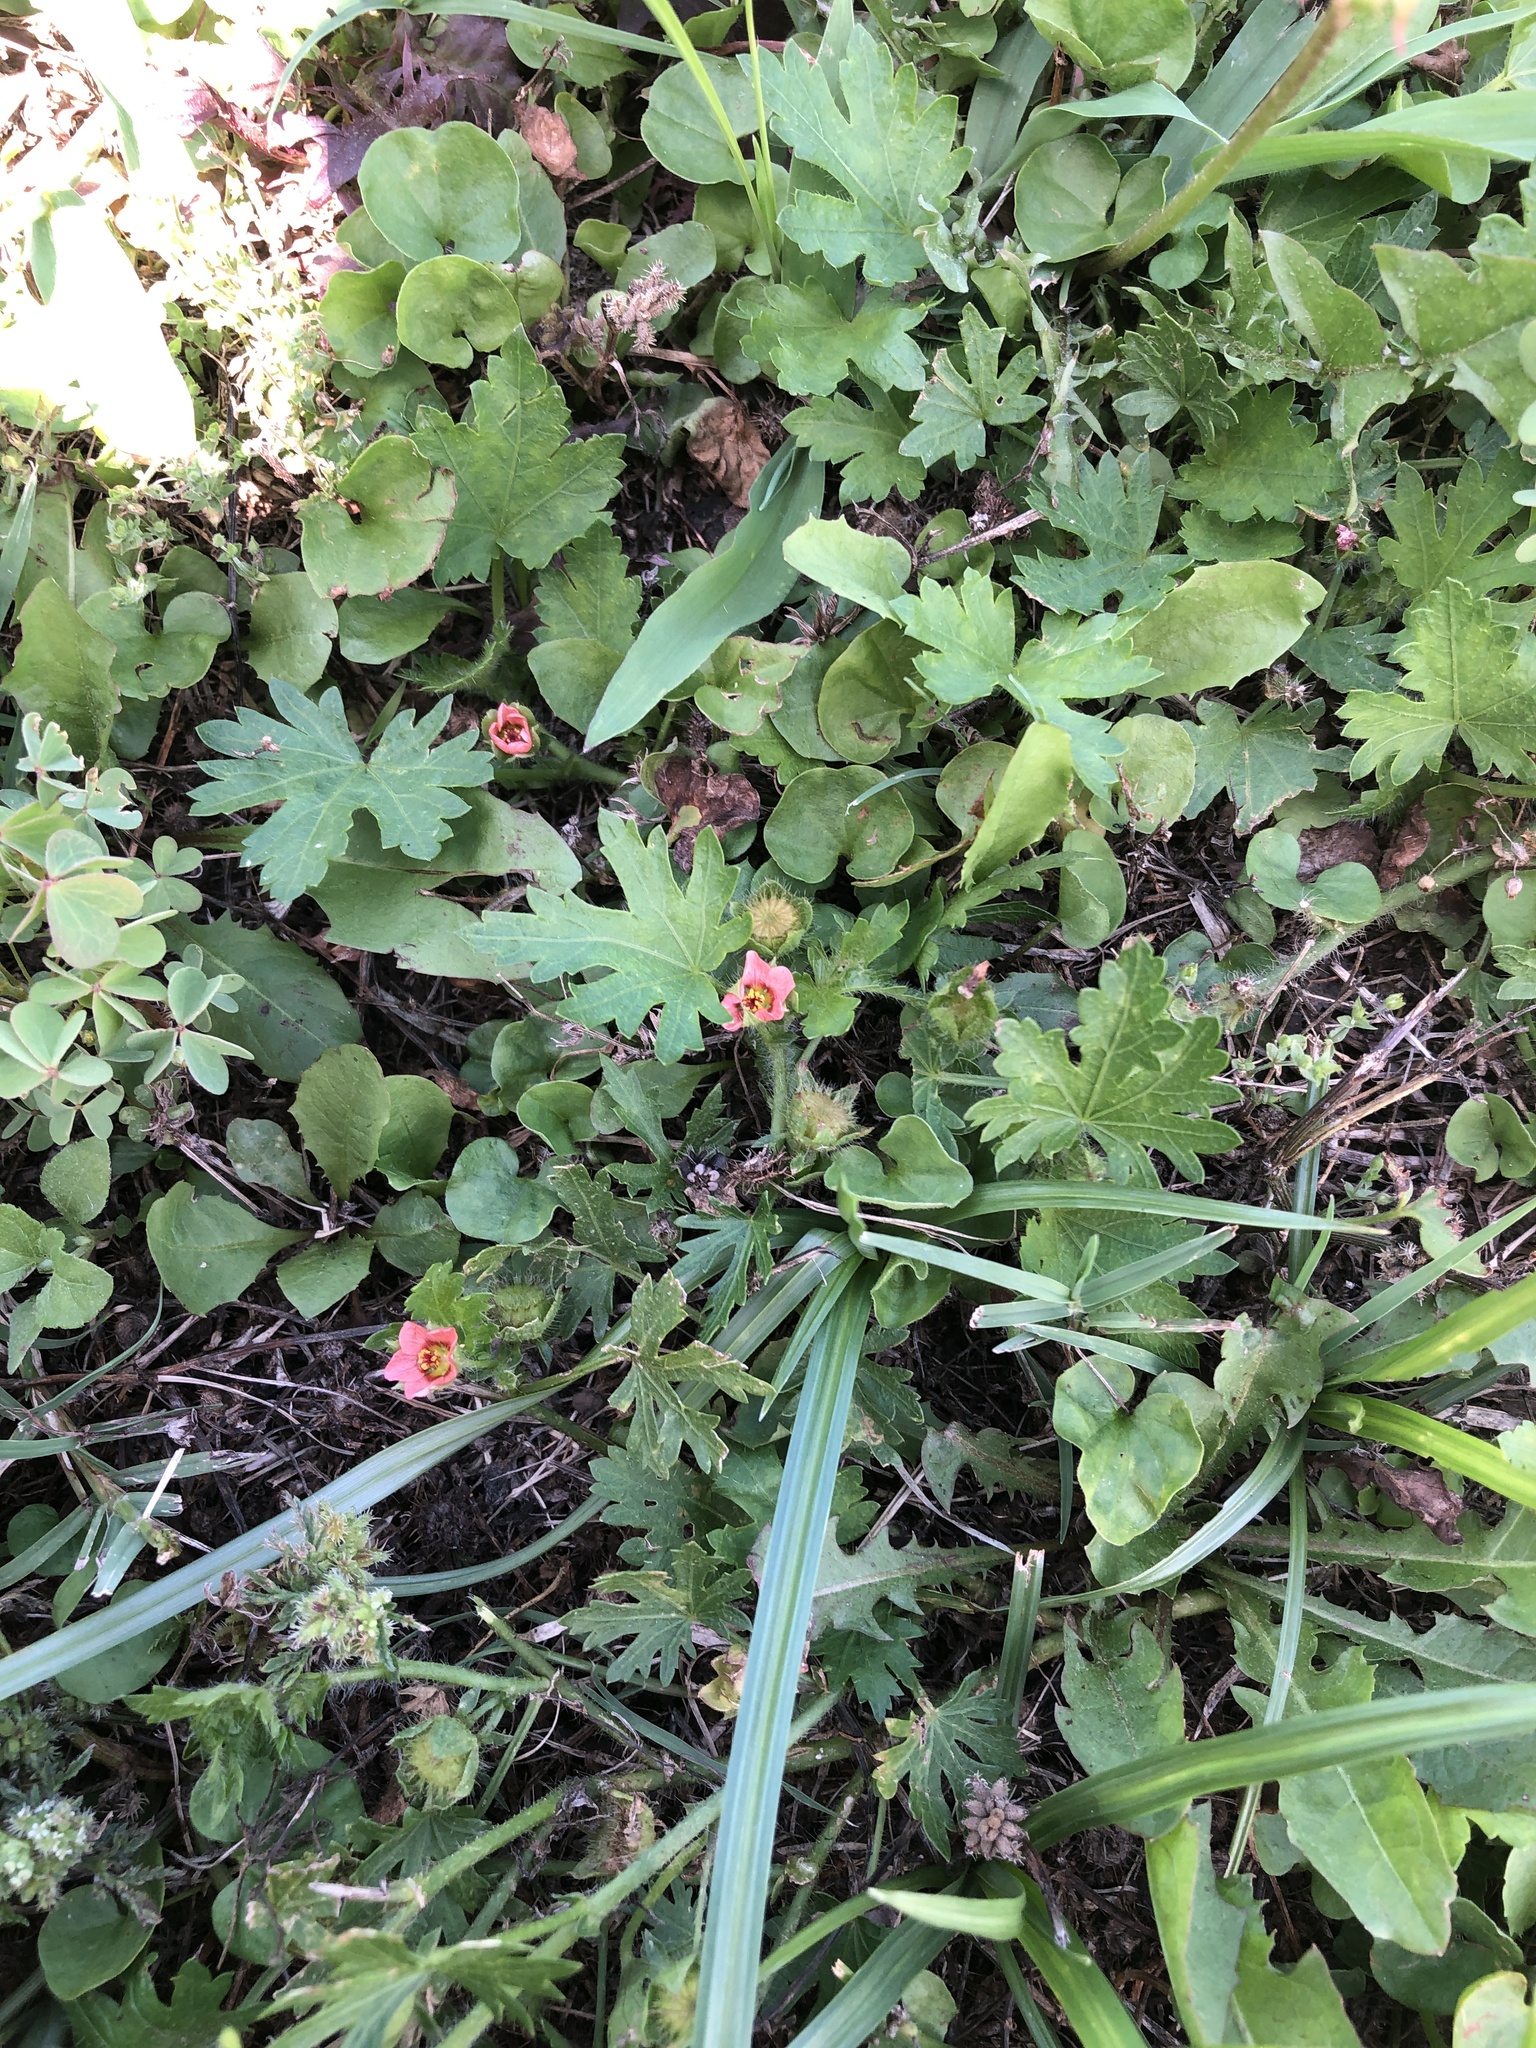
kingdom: Plantae
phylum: Tracheophyta
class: Magnoliopsida
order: Malvales
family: Malvaceae
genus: Modiola
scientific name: Modiola caroliniana
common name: Carolina bristlemallow
